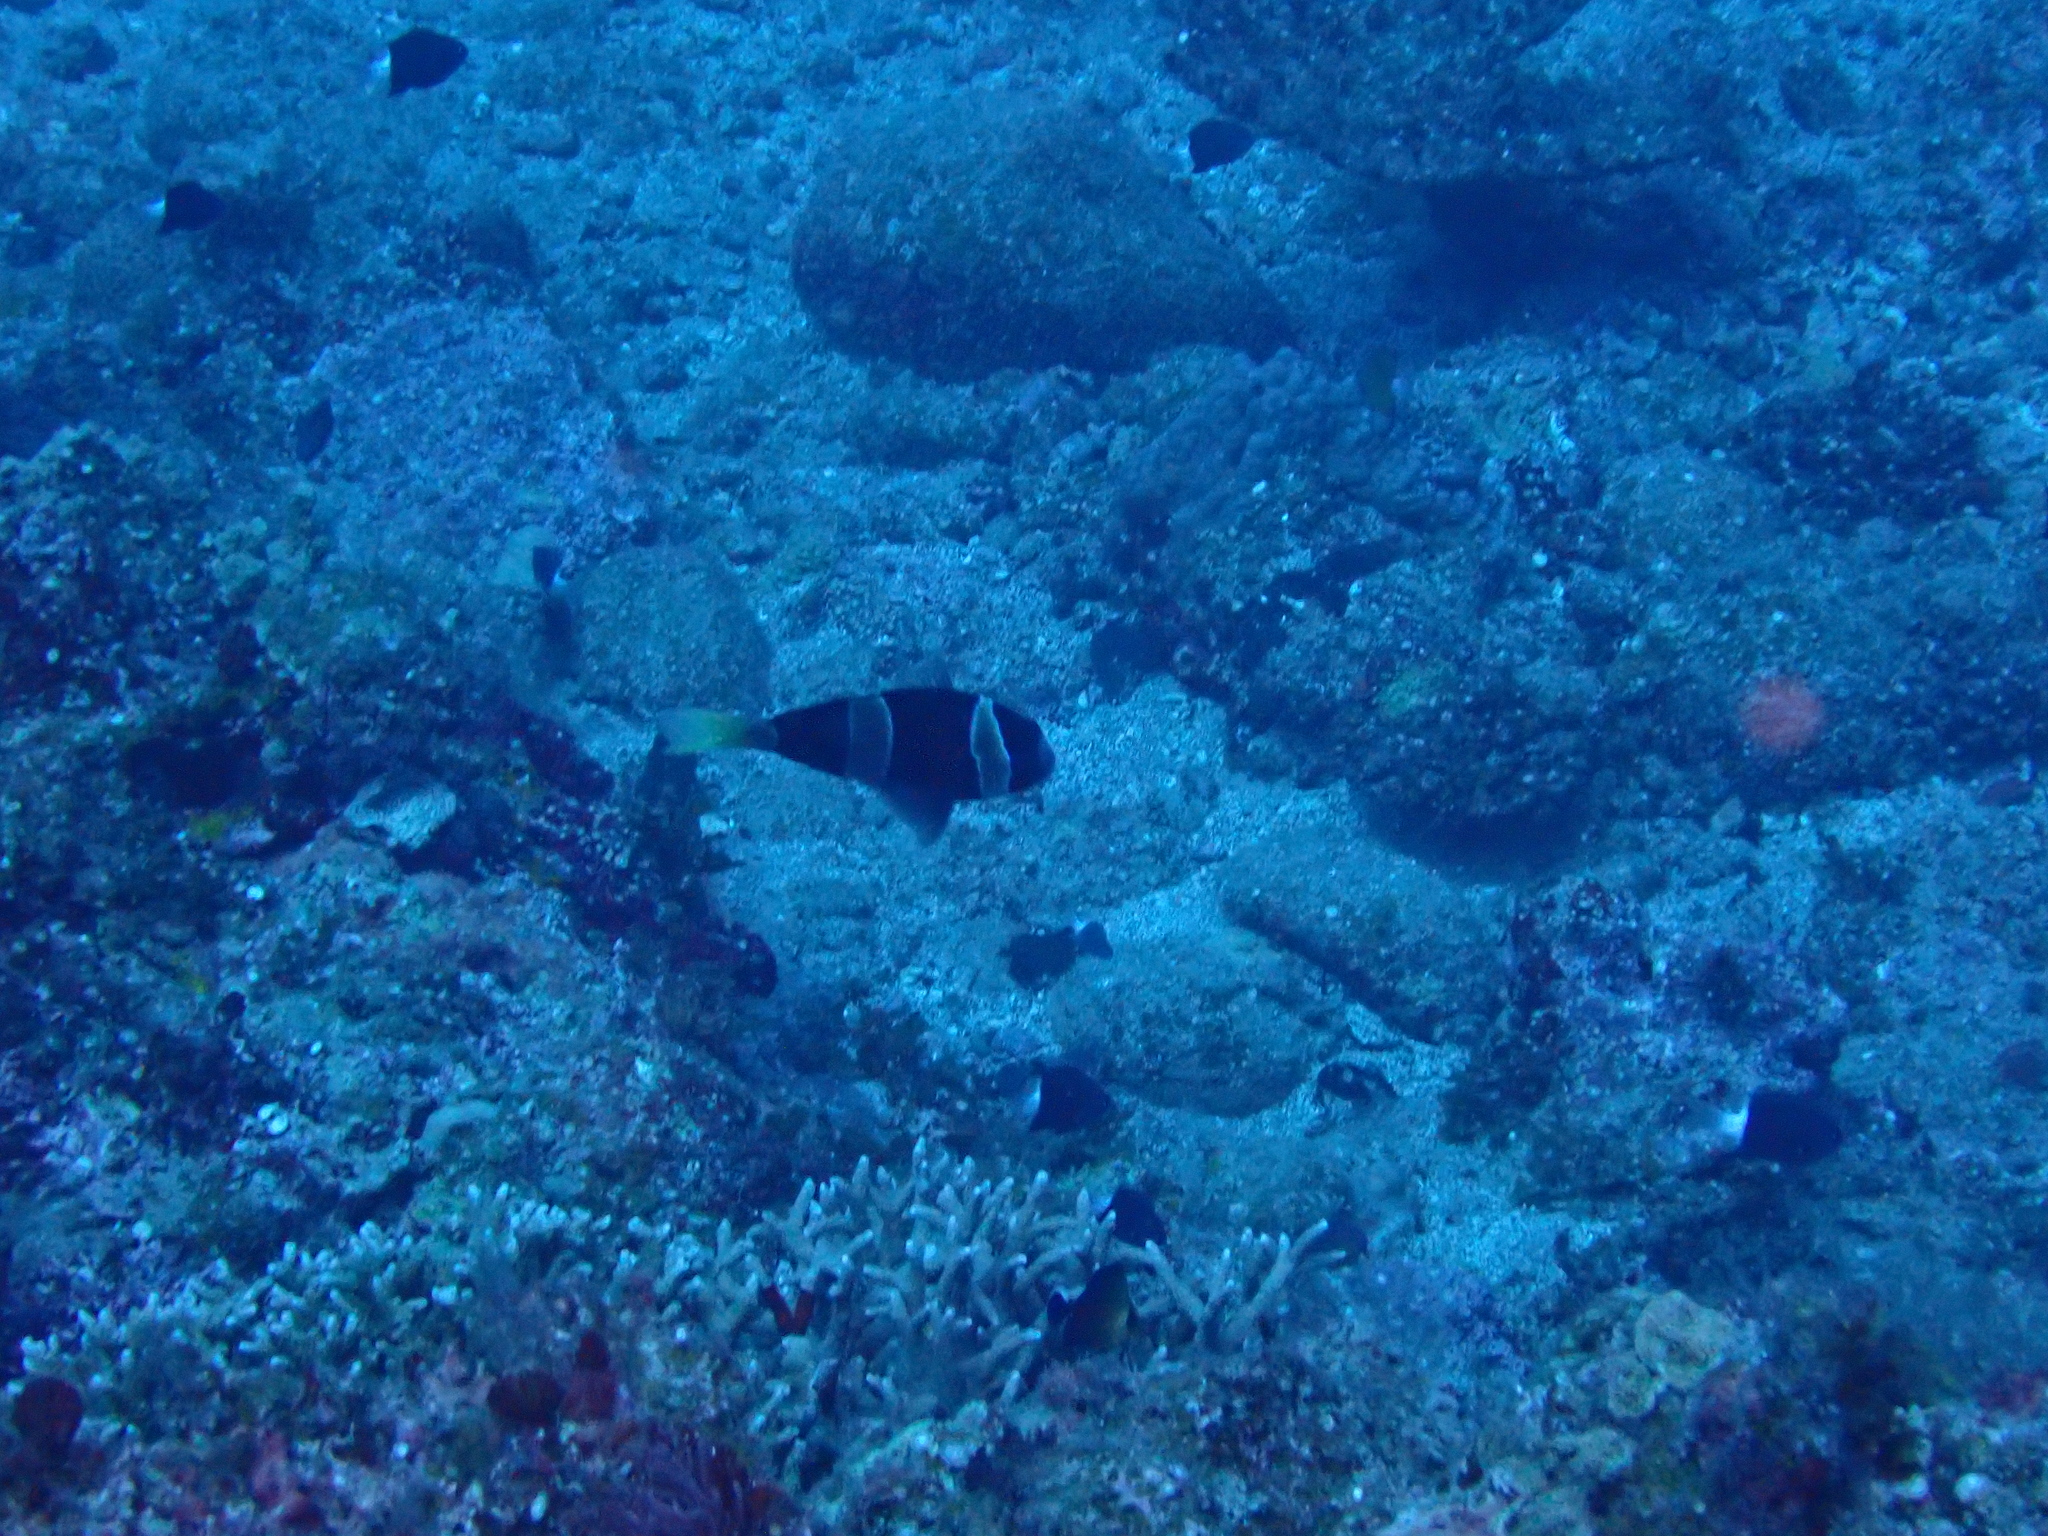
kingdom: Animalia
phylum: Chordata
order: Perciformes
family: Pomacentridae
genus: Amphiprion
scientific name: Amphiprion clarkii
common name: Clark's anemonefish
